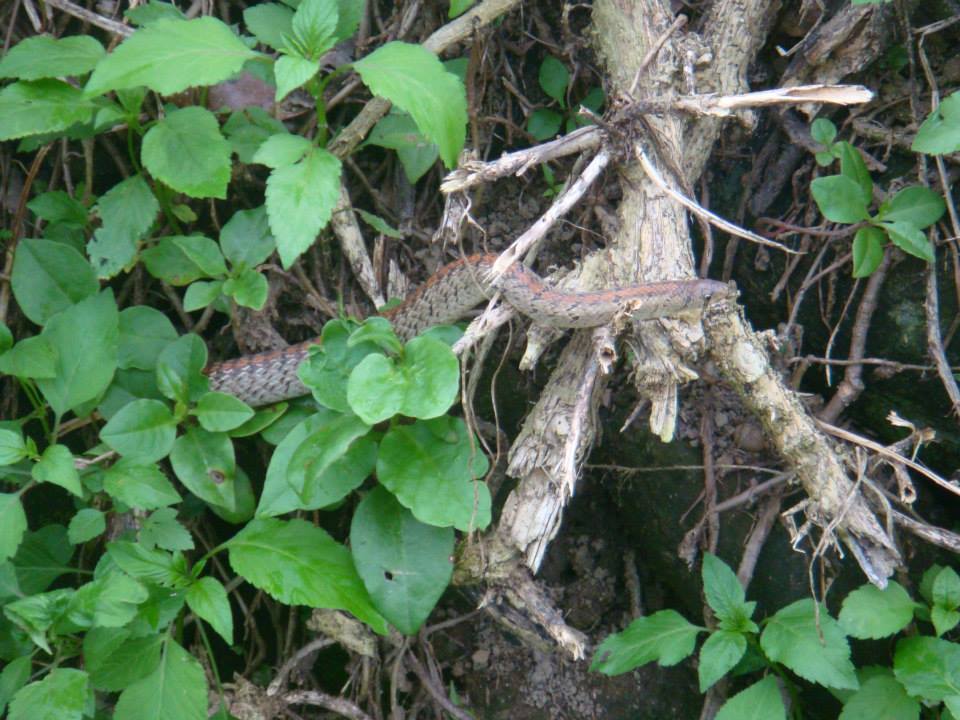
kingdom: Animalia
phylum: Chordata
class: Squamata
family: Colubridae
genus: Oligodon
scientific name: Oligodon formosanus
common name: Formosa kukri snake
